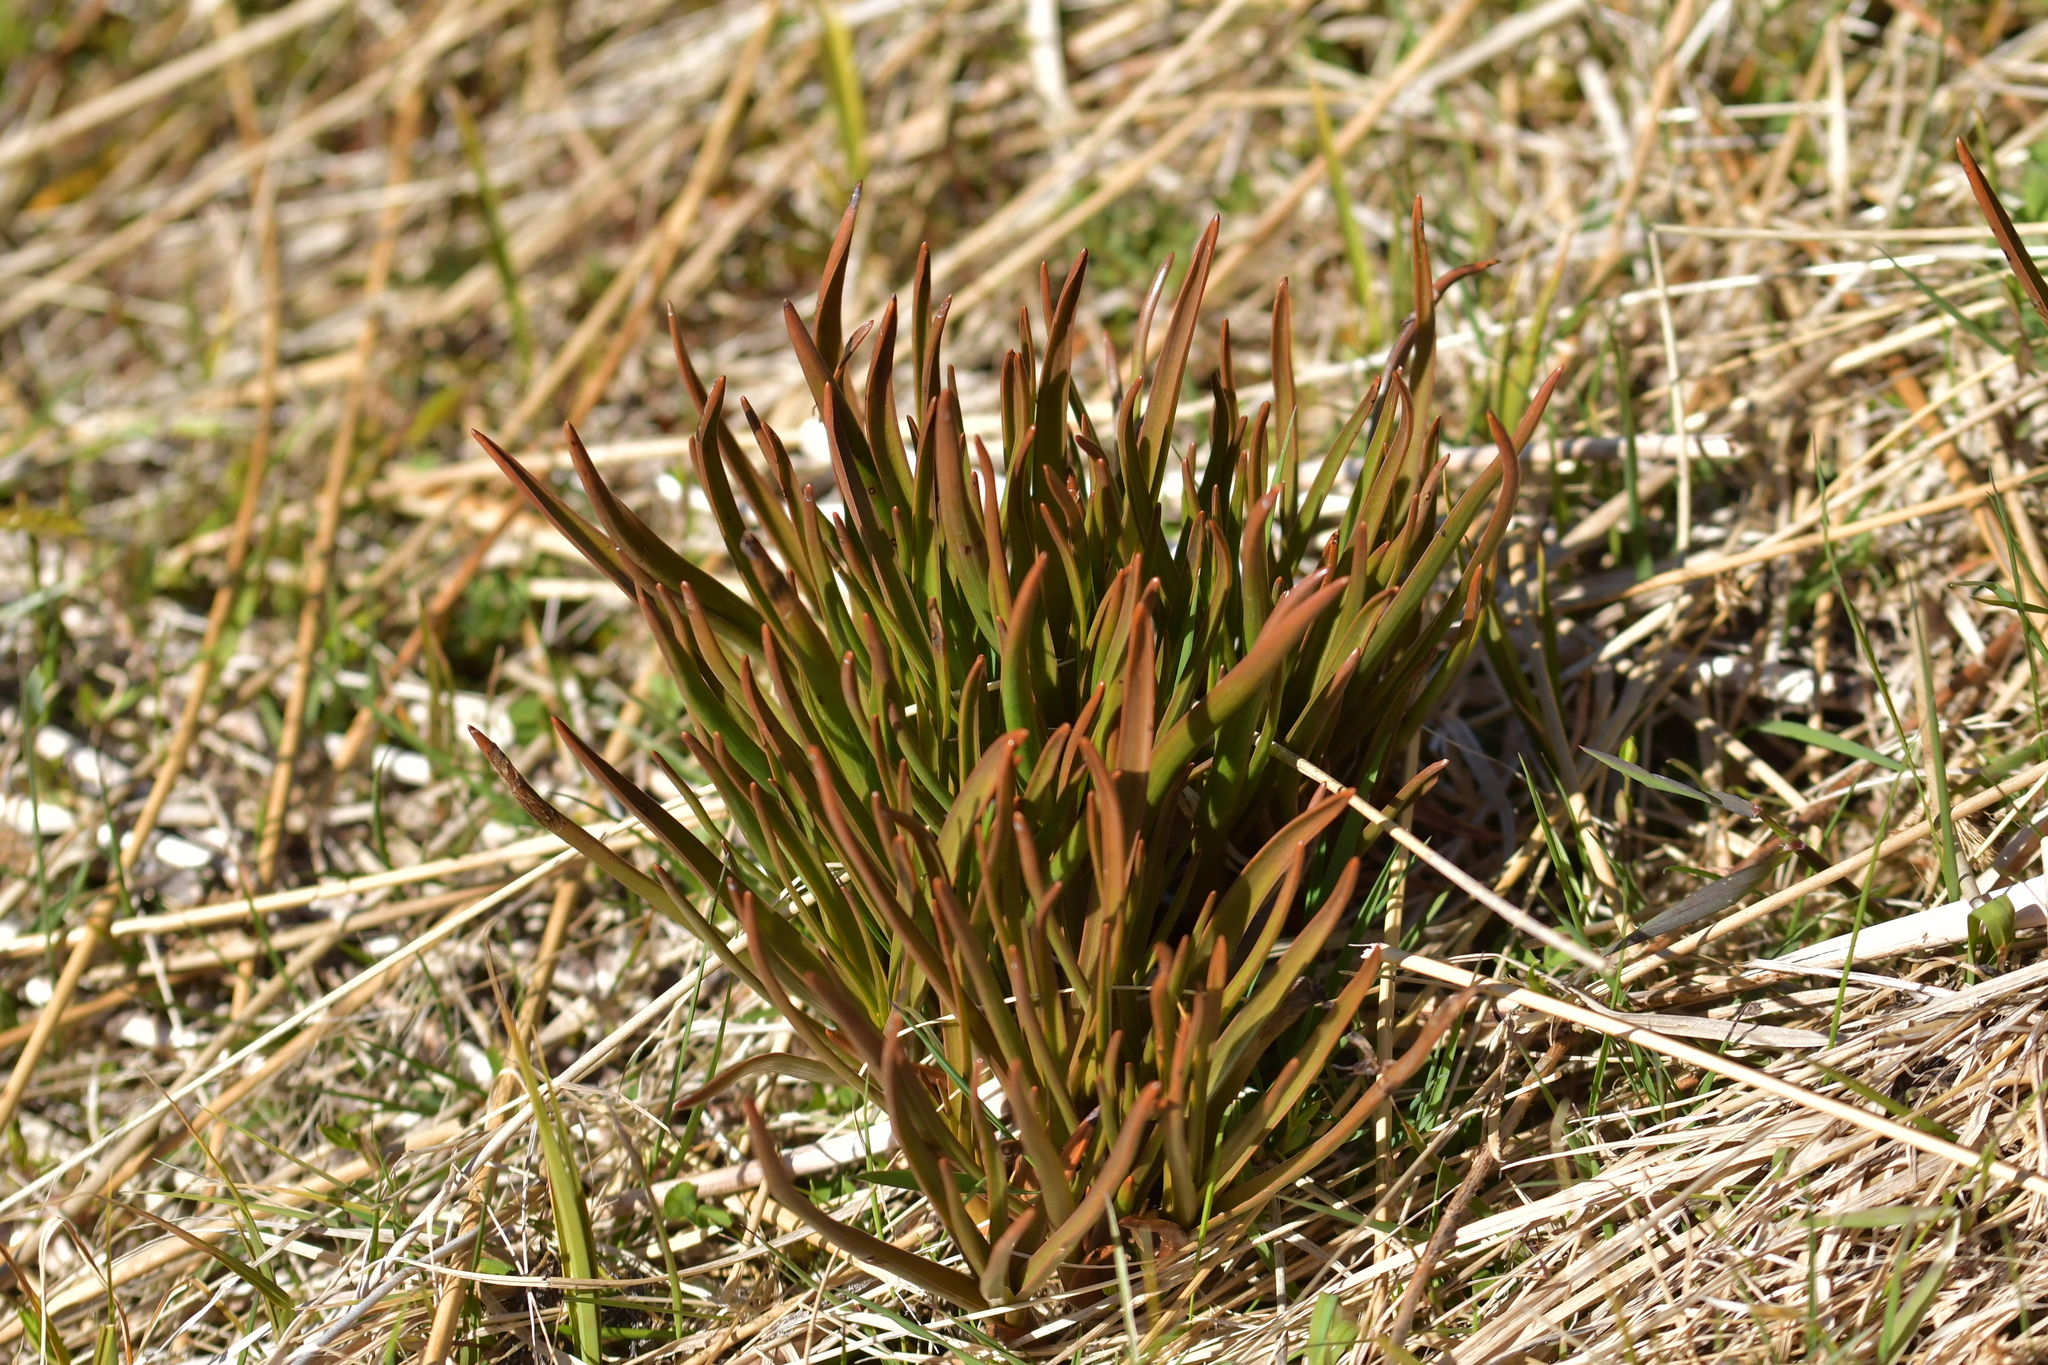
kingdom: Plantae
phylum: Tracheophyta
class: Liliopsida
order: Asparagales
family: Asphodelaceae
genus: Bulbinella
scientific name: Bulbinella hookeri
